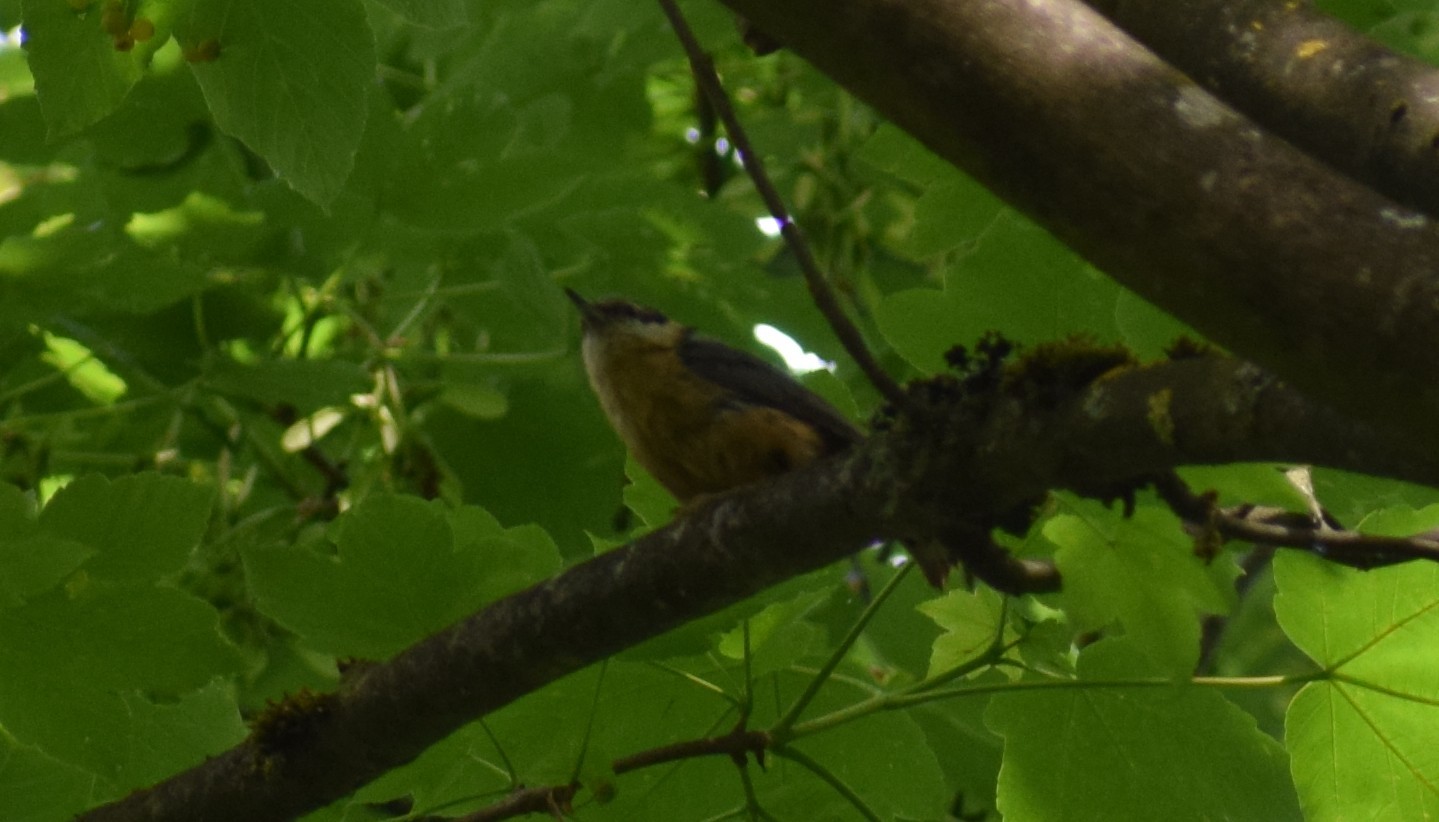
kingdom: Animalia
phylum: Chordata
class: Aves
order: Passeriformes
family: Sittidae
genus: Sitta
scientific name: Sitta europaea
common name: Eurasian nuthatch
